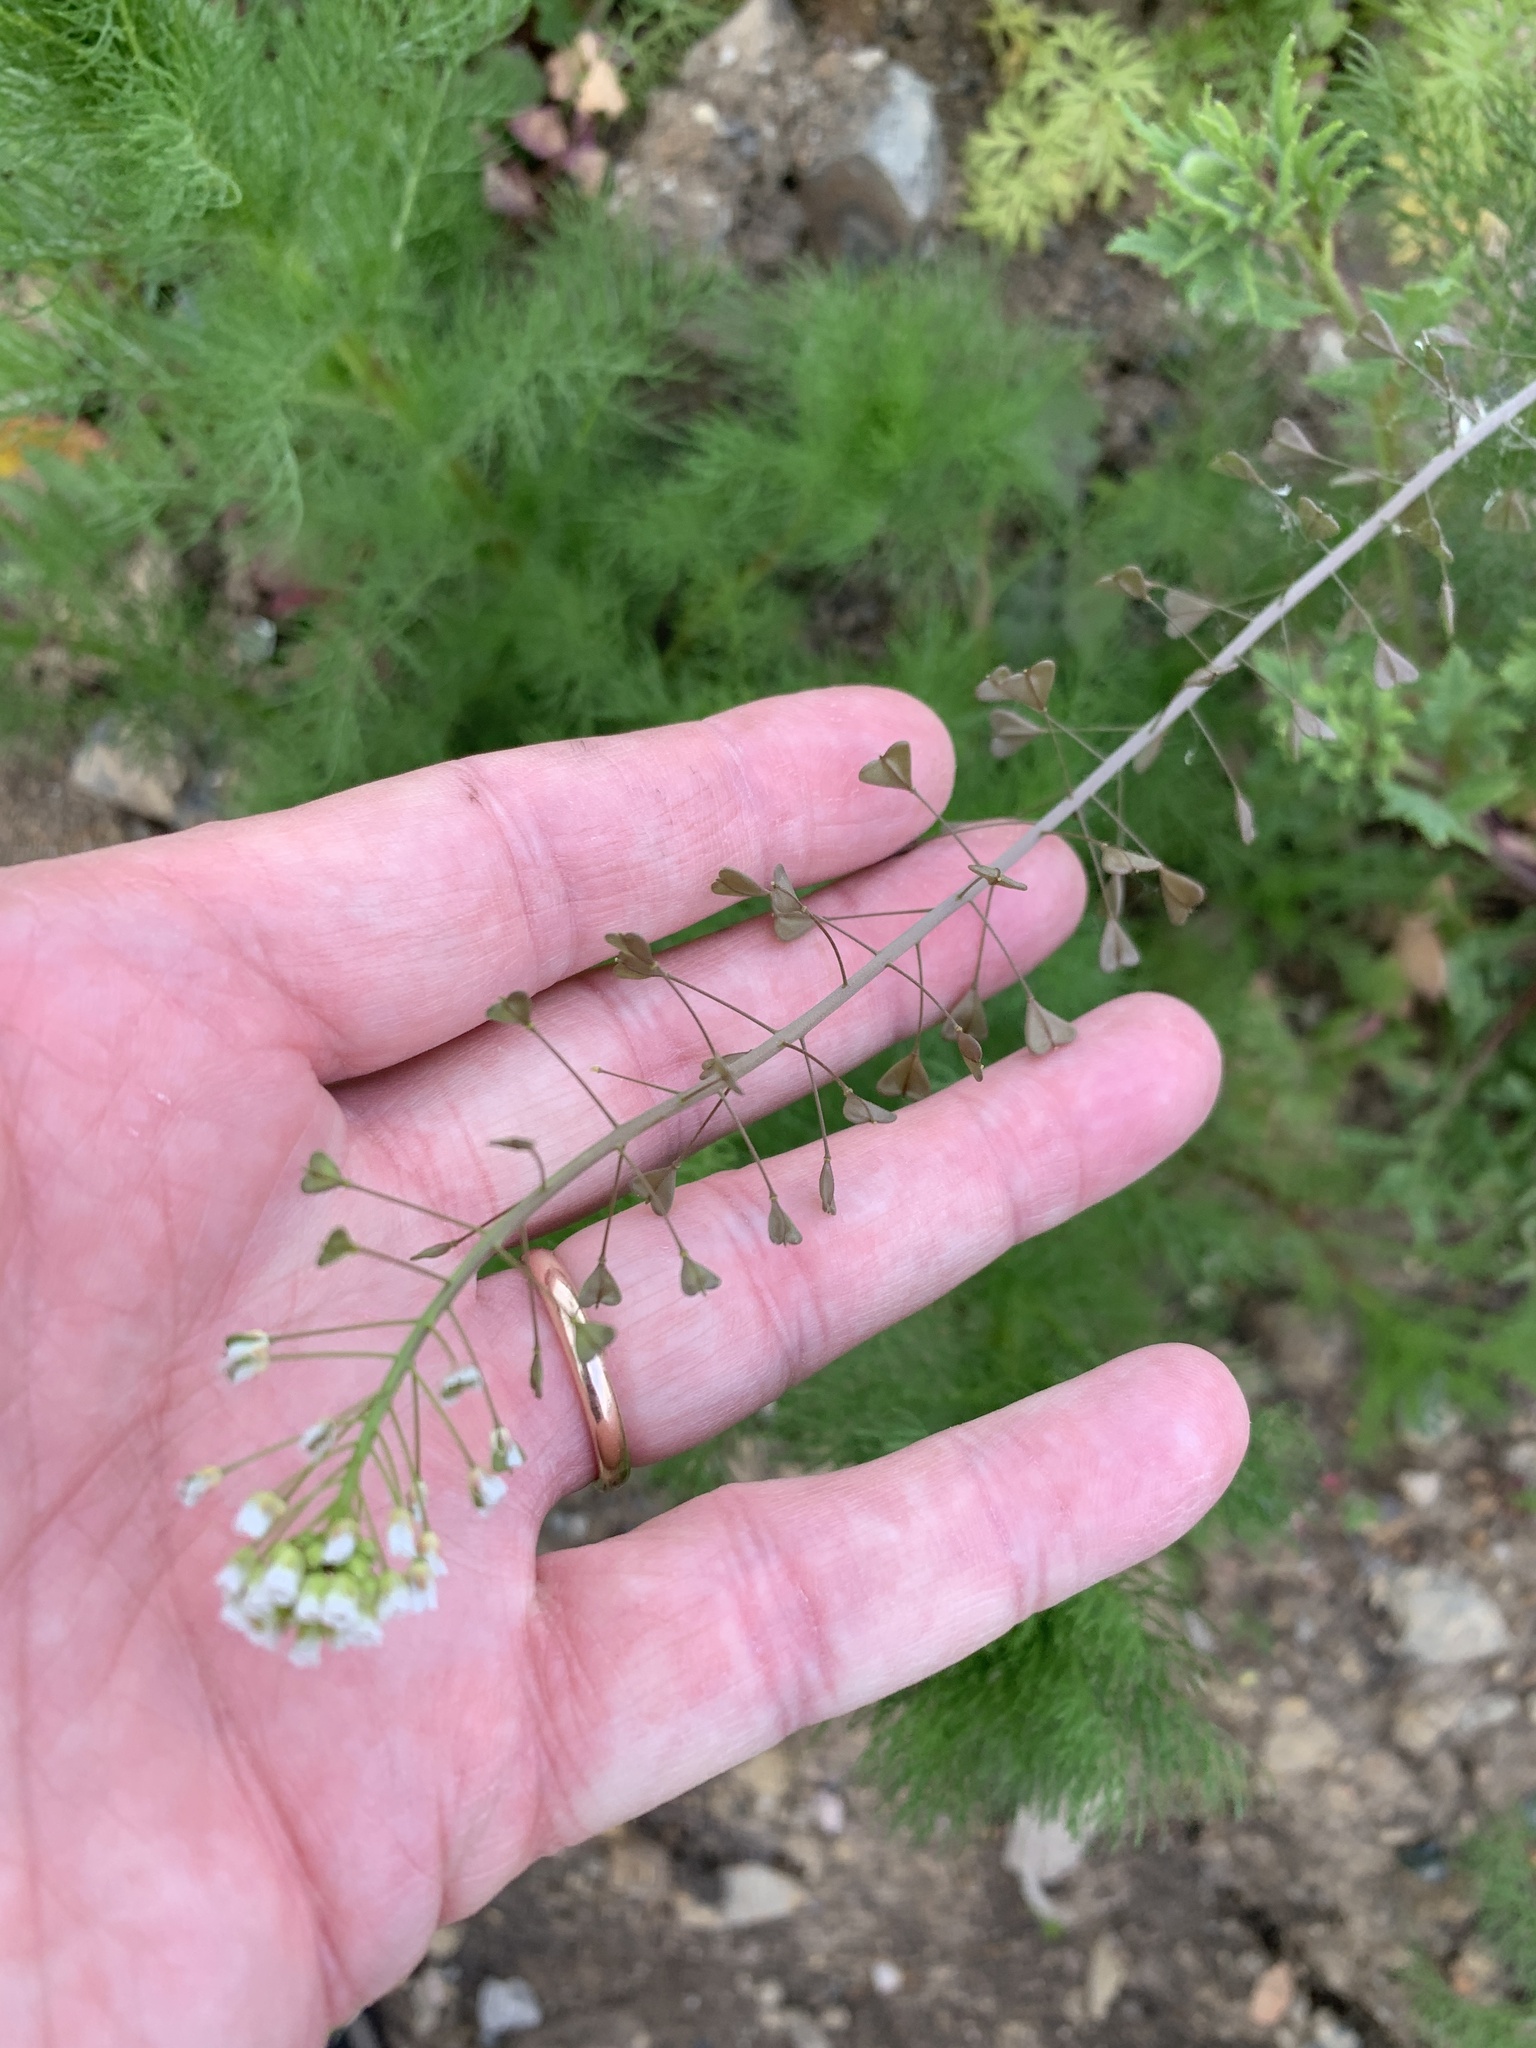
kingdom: Plantae
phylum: Tracheophyta
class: Magnoliopsida
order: Brassicales
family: Brassicaceae
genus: Capsella
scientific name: Capsella bursa-pastoris
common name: Shepherd's purse
